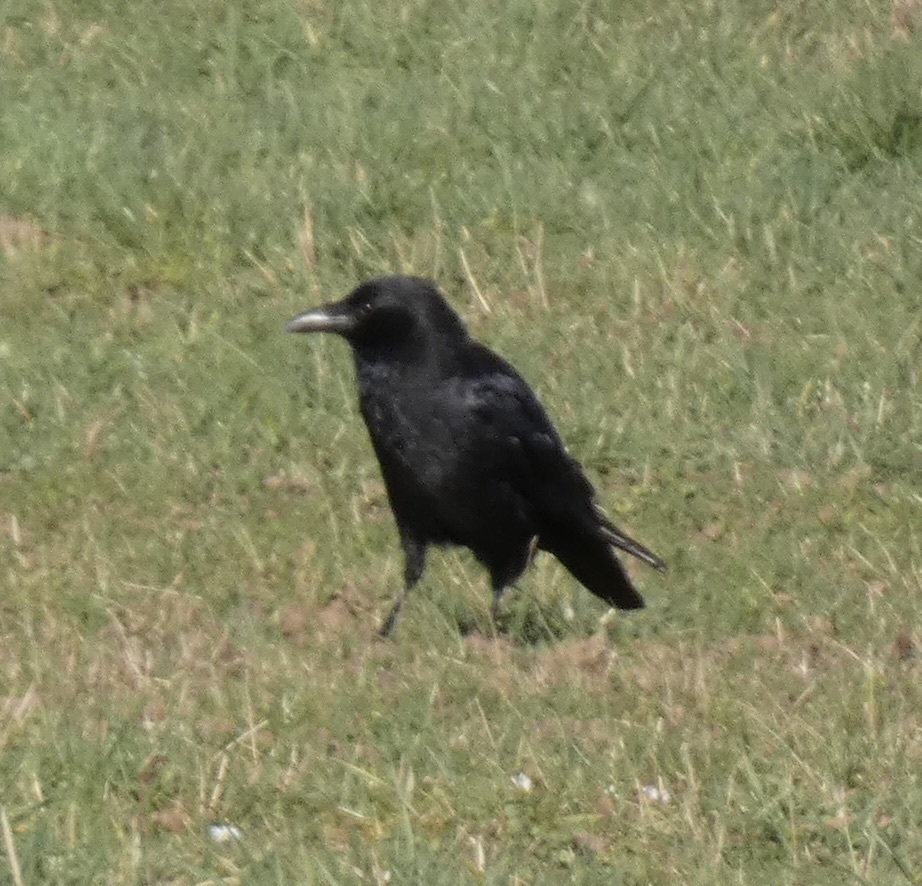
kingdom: Animalia
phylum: Chordata
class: Aves
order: Passeriformes
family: Corvidae
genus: Corvus
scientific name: Corvus corone
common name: Carrion crow
